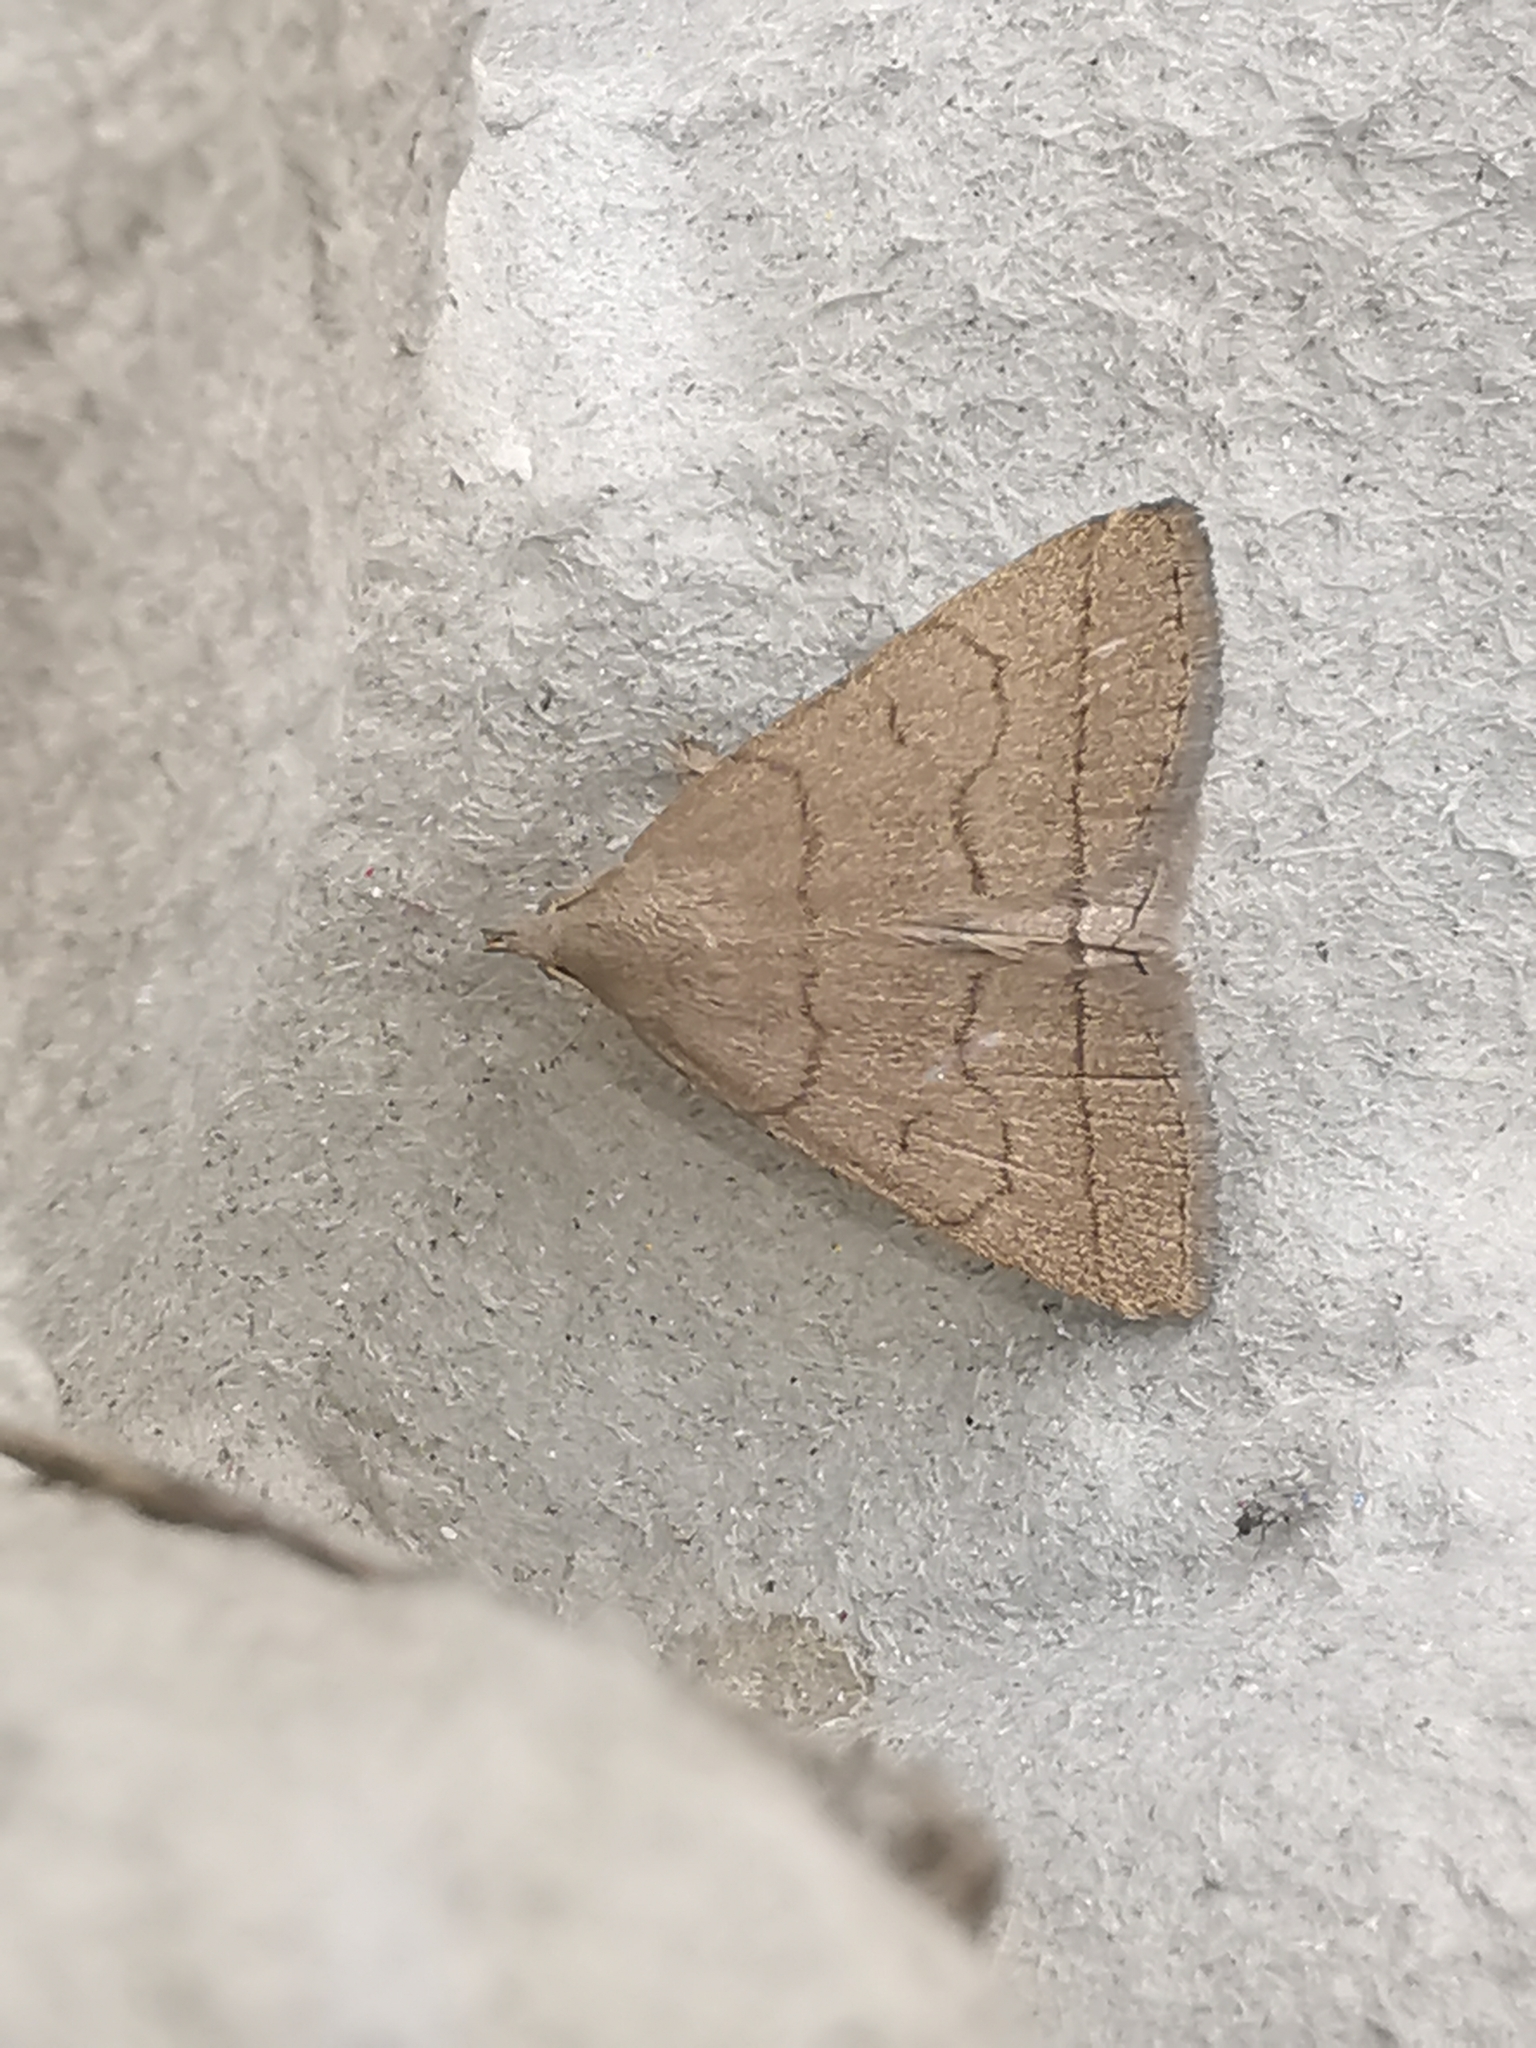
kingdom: Animalia
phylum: Arthropoda
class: Insecta
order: Lepidoptera
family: Erebidae
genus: Herminia
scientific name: Herminia tarsipennalis
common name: Fan-foot
